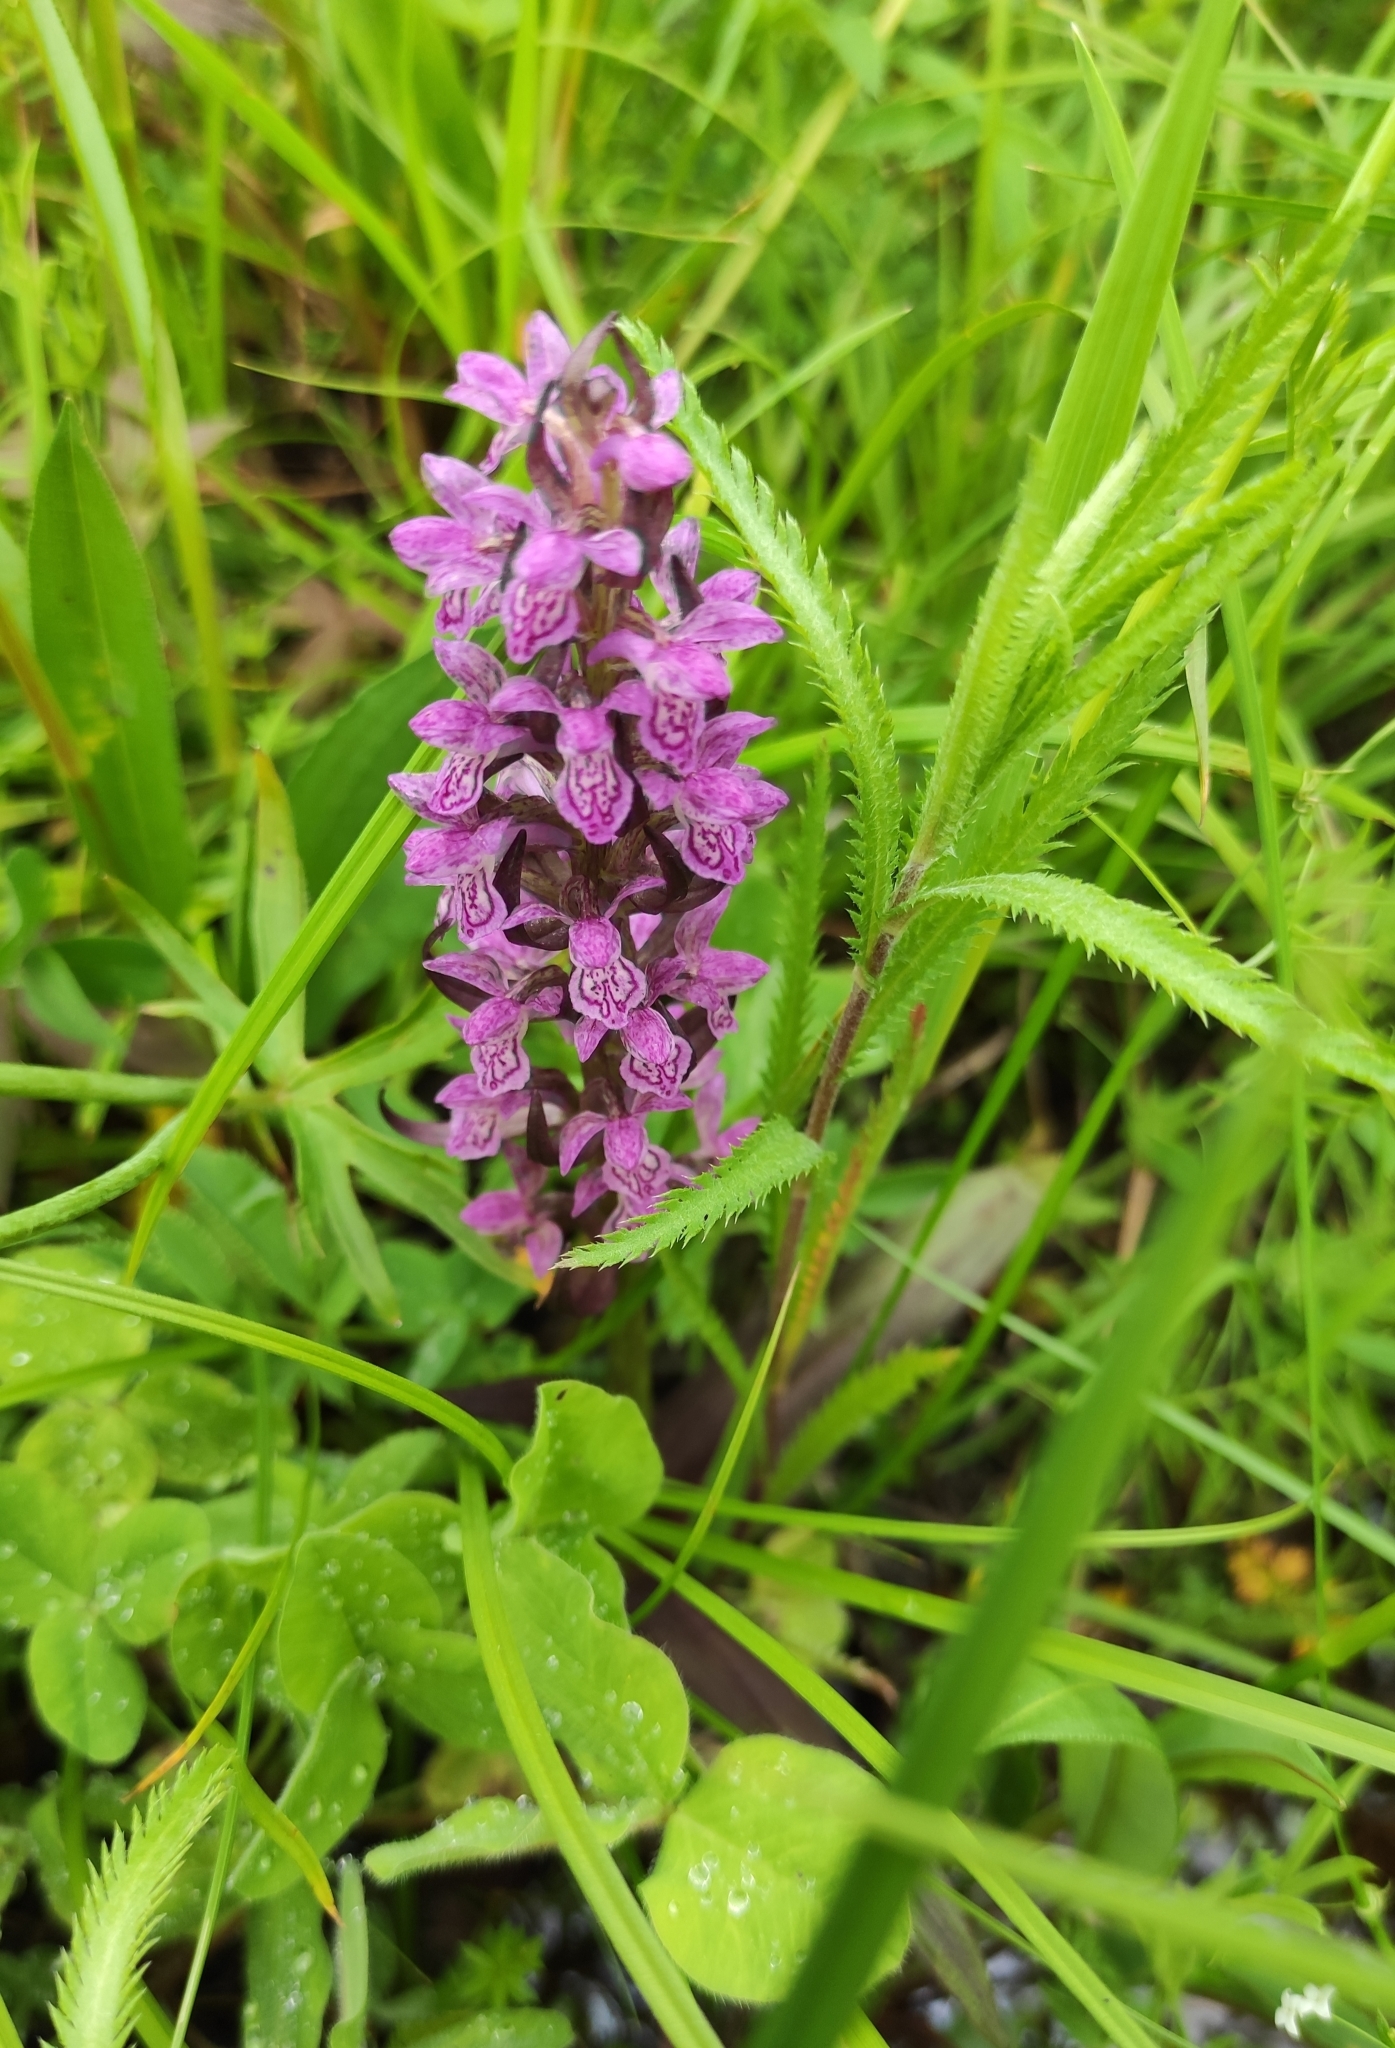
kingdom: Plantae
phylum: Tracheophyta
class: Liliopsida
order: Asparagales
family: Orchidaceae
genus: Dactylorhiza
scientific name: Dactylorhiza incarnata
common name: Early marsh-orchid
